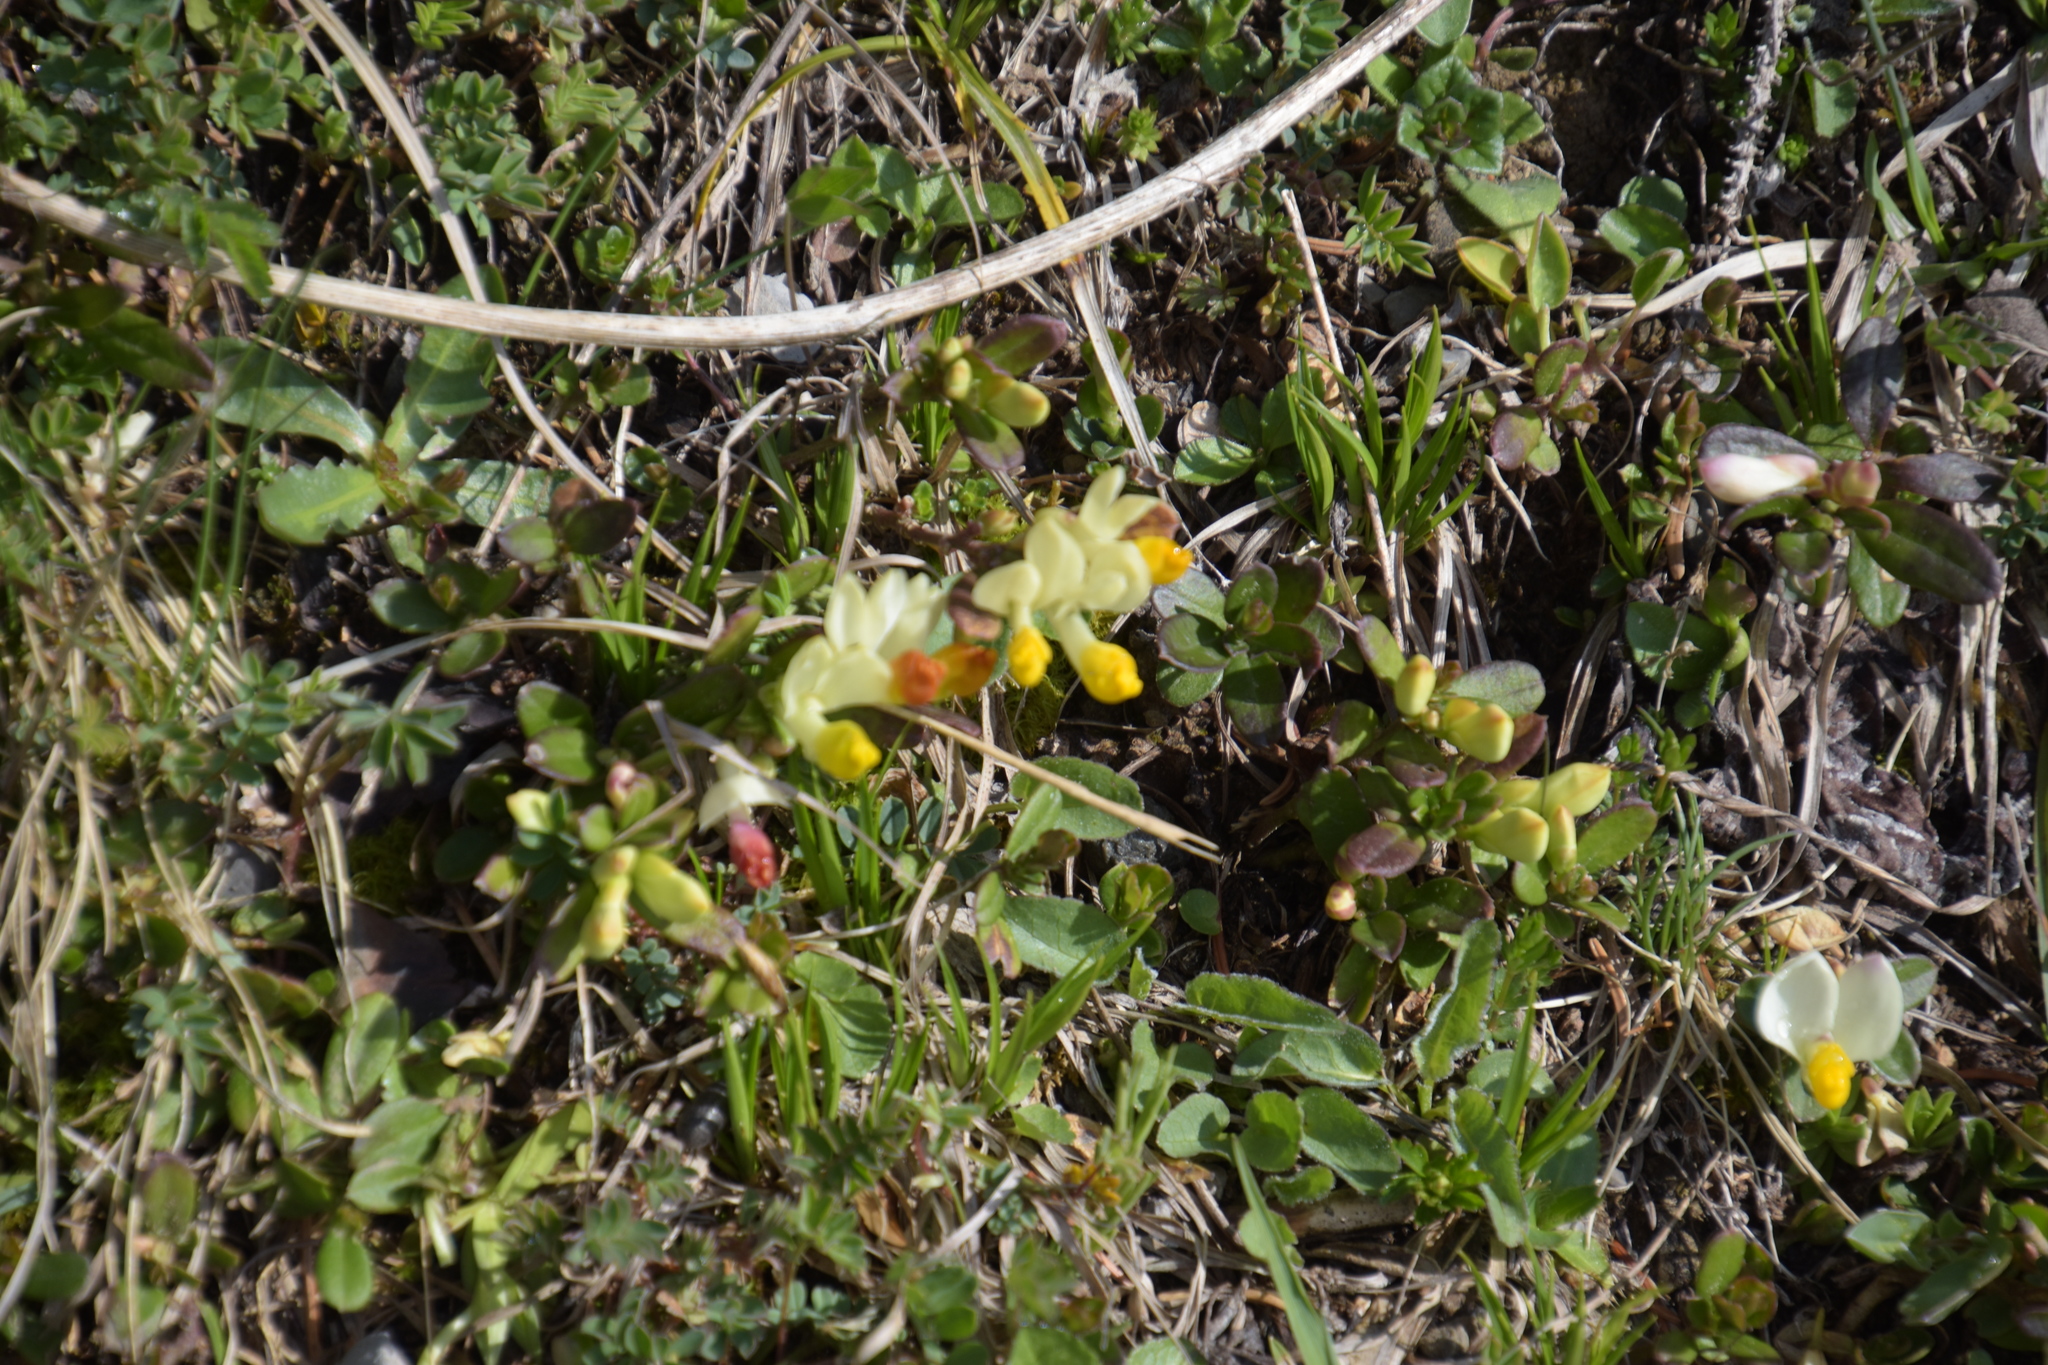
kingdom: Plantae
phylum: Tracheophyta
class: Magnoliopsida
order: Fabales
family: Polygalaceae
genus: Polygaloides
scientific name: Polygaloides chamaebuxus
